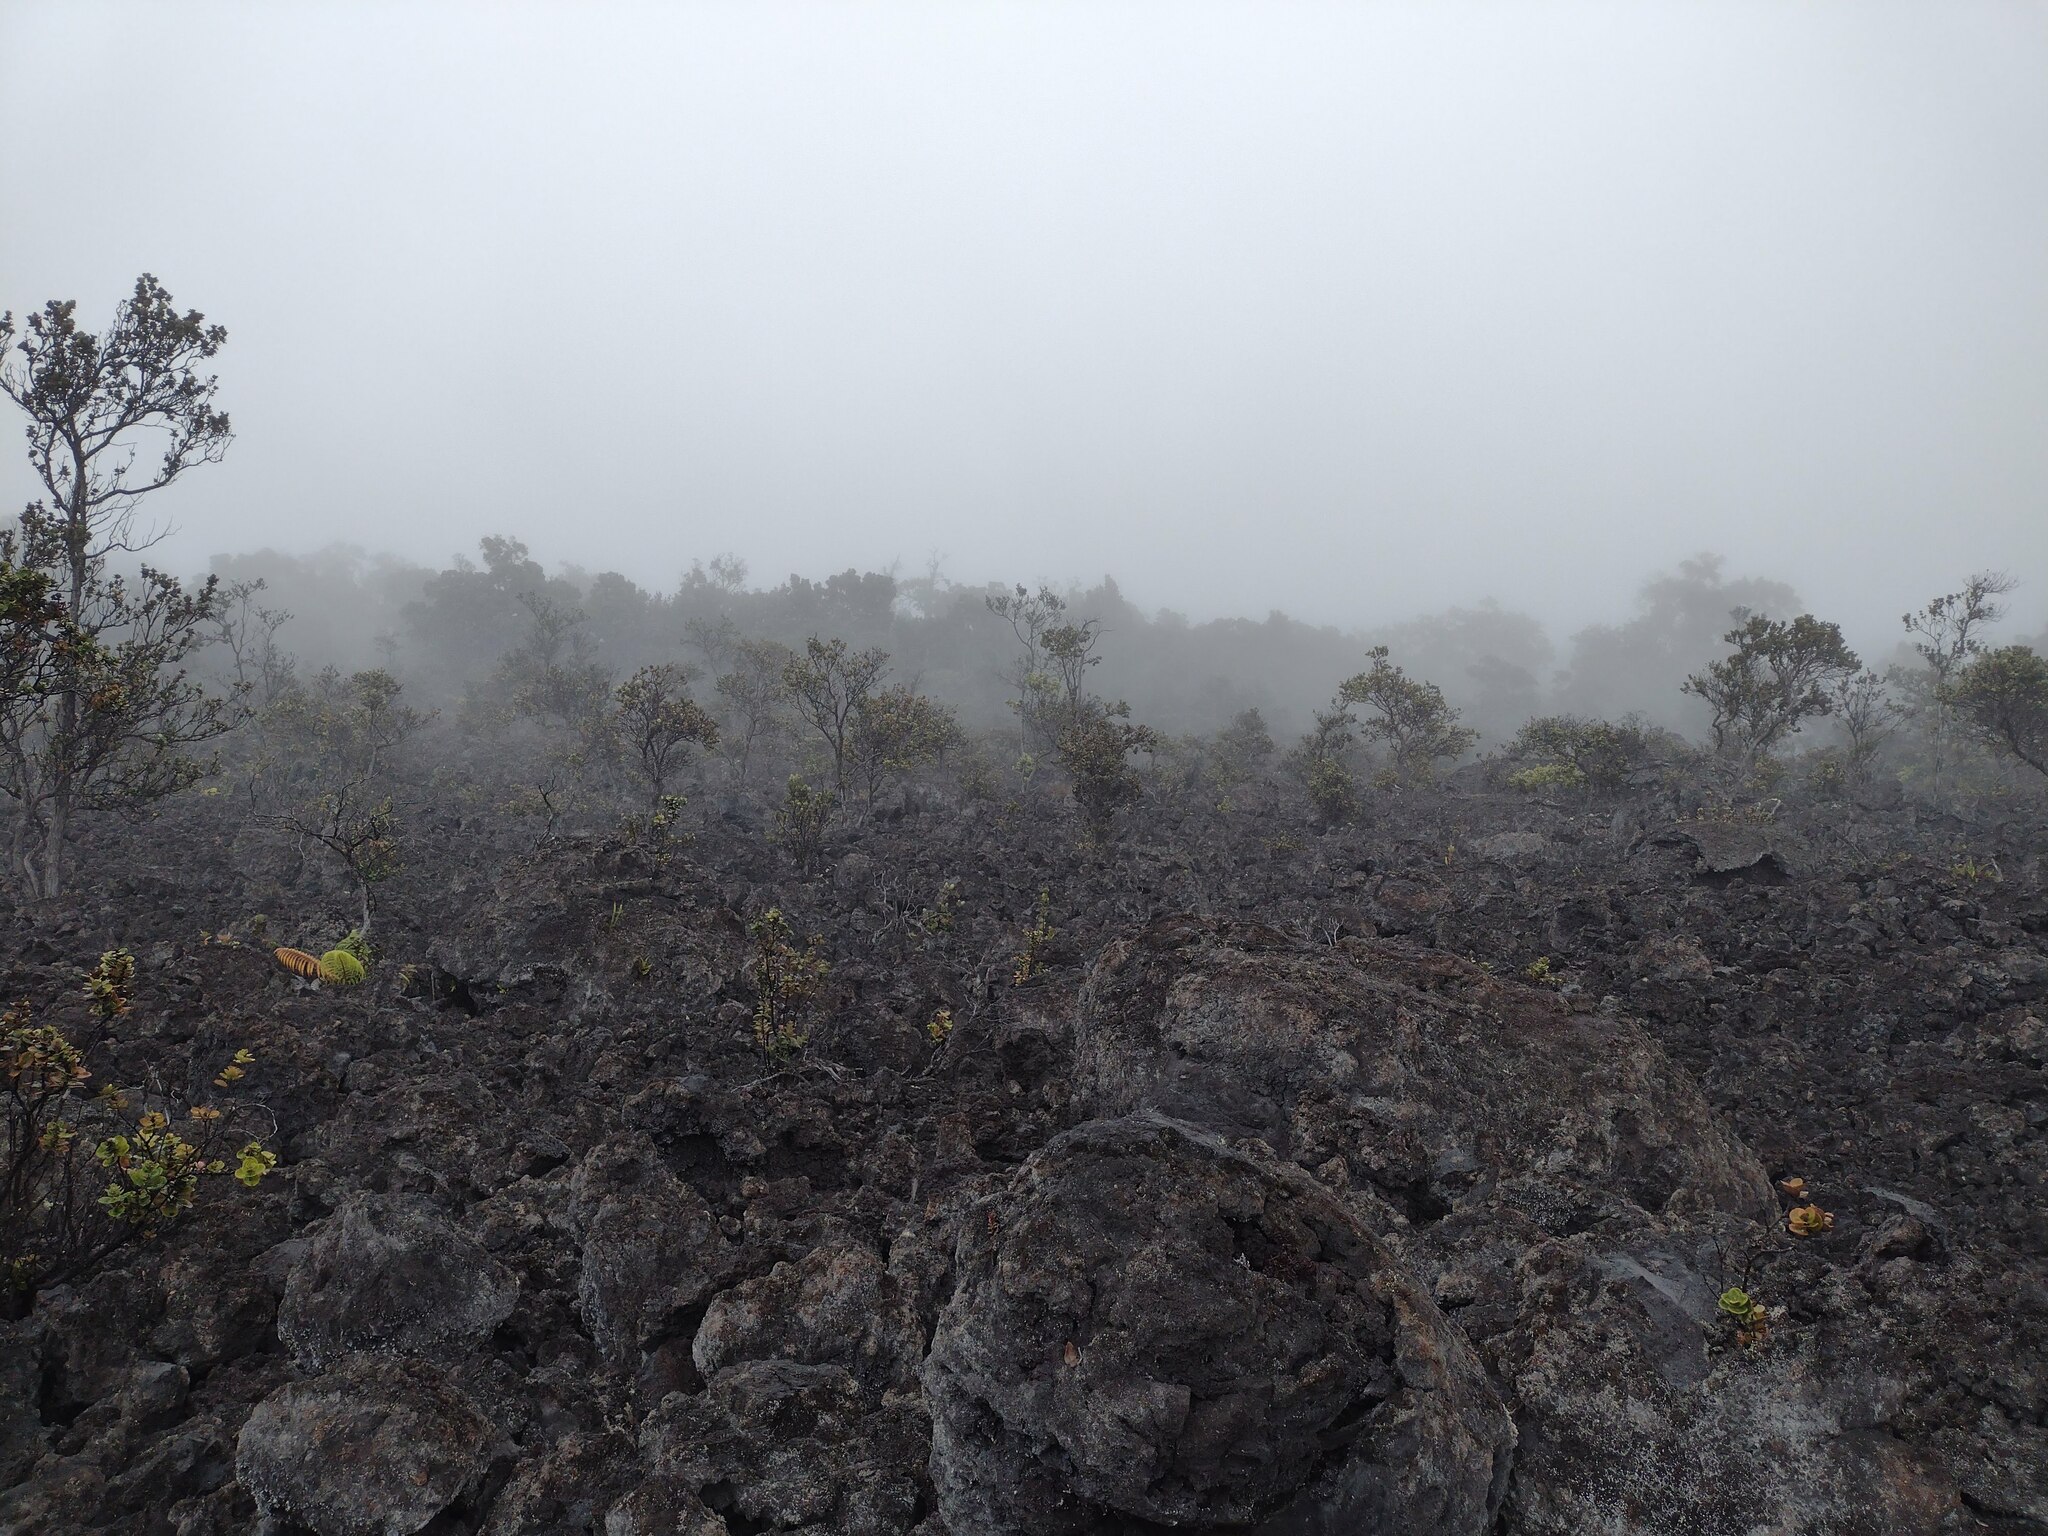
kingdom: Plantae
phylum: Tracheophyta
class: Magnoliopsida
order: Myrtales
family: Myrtaceae
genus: Metrosideros
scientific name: Metrosideros polymorpha
